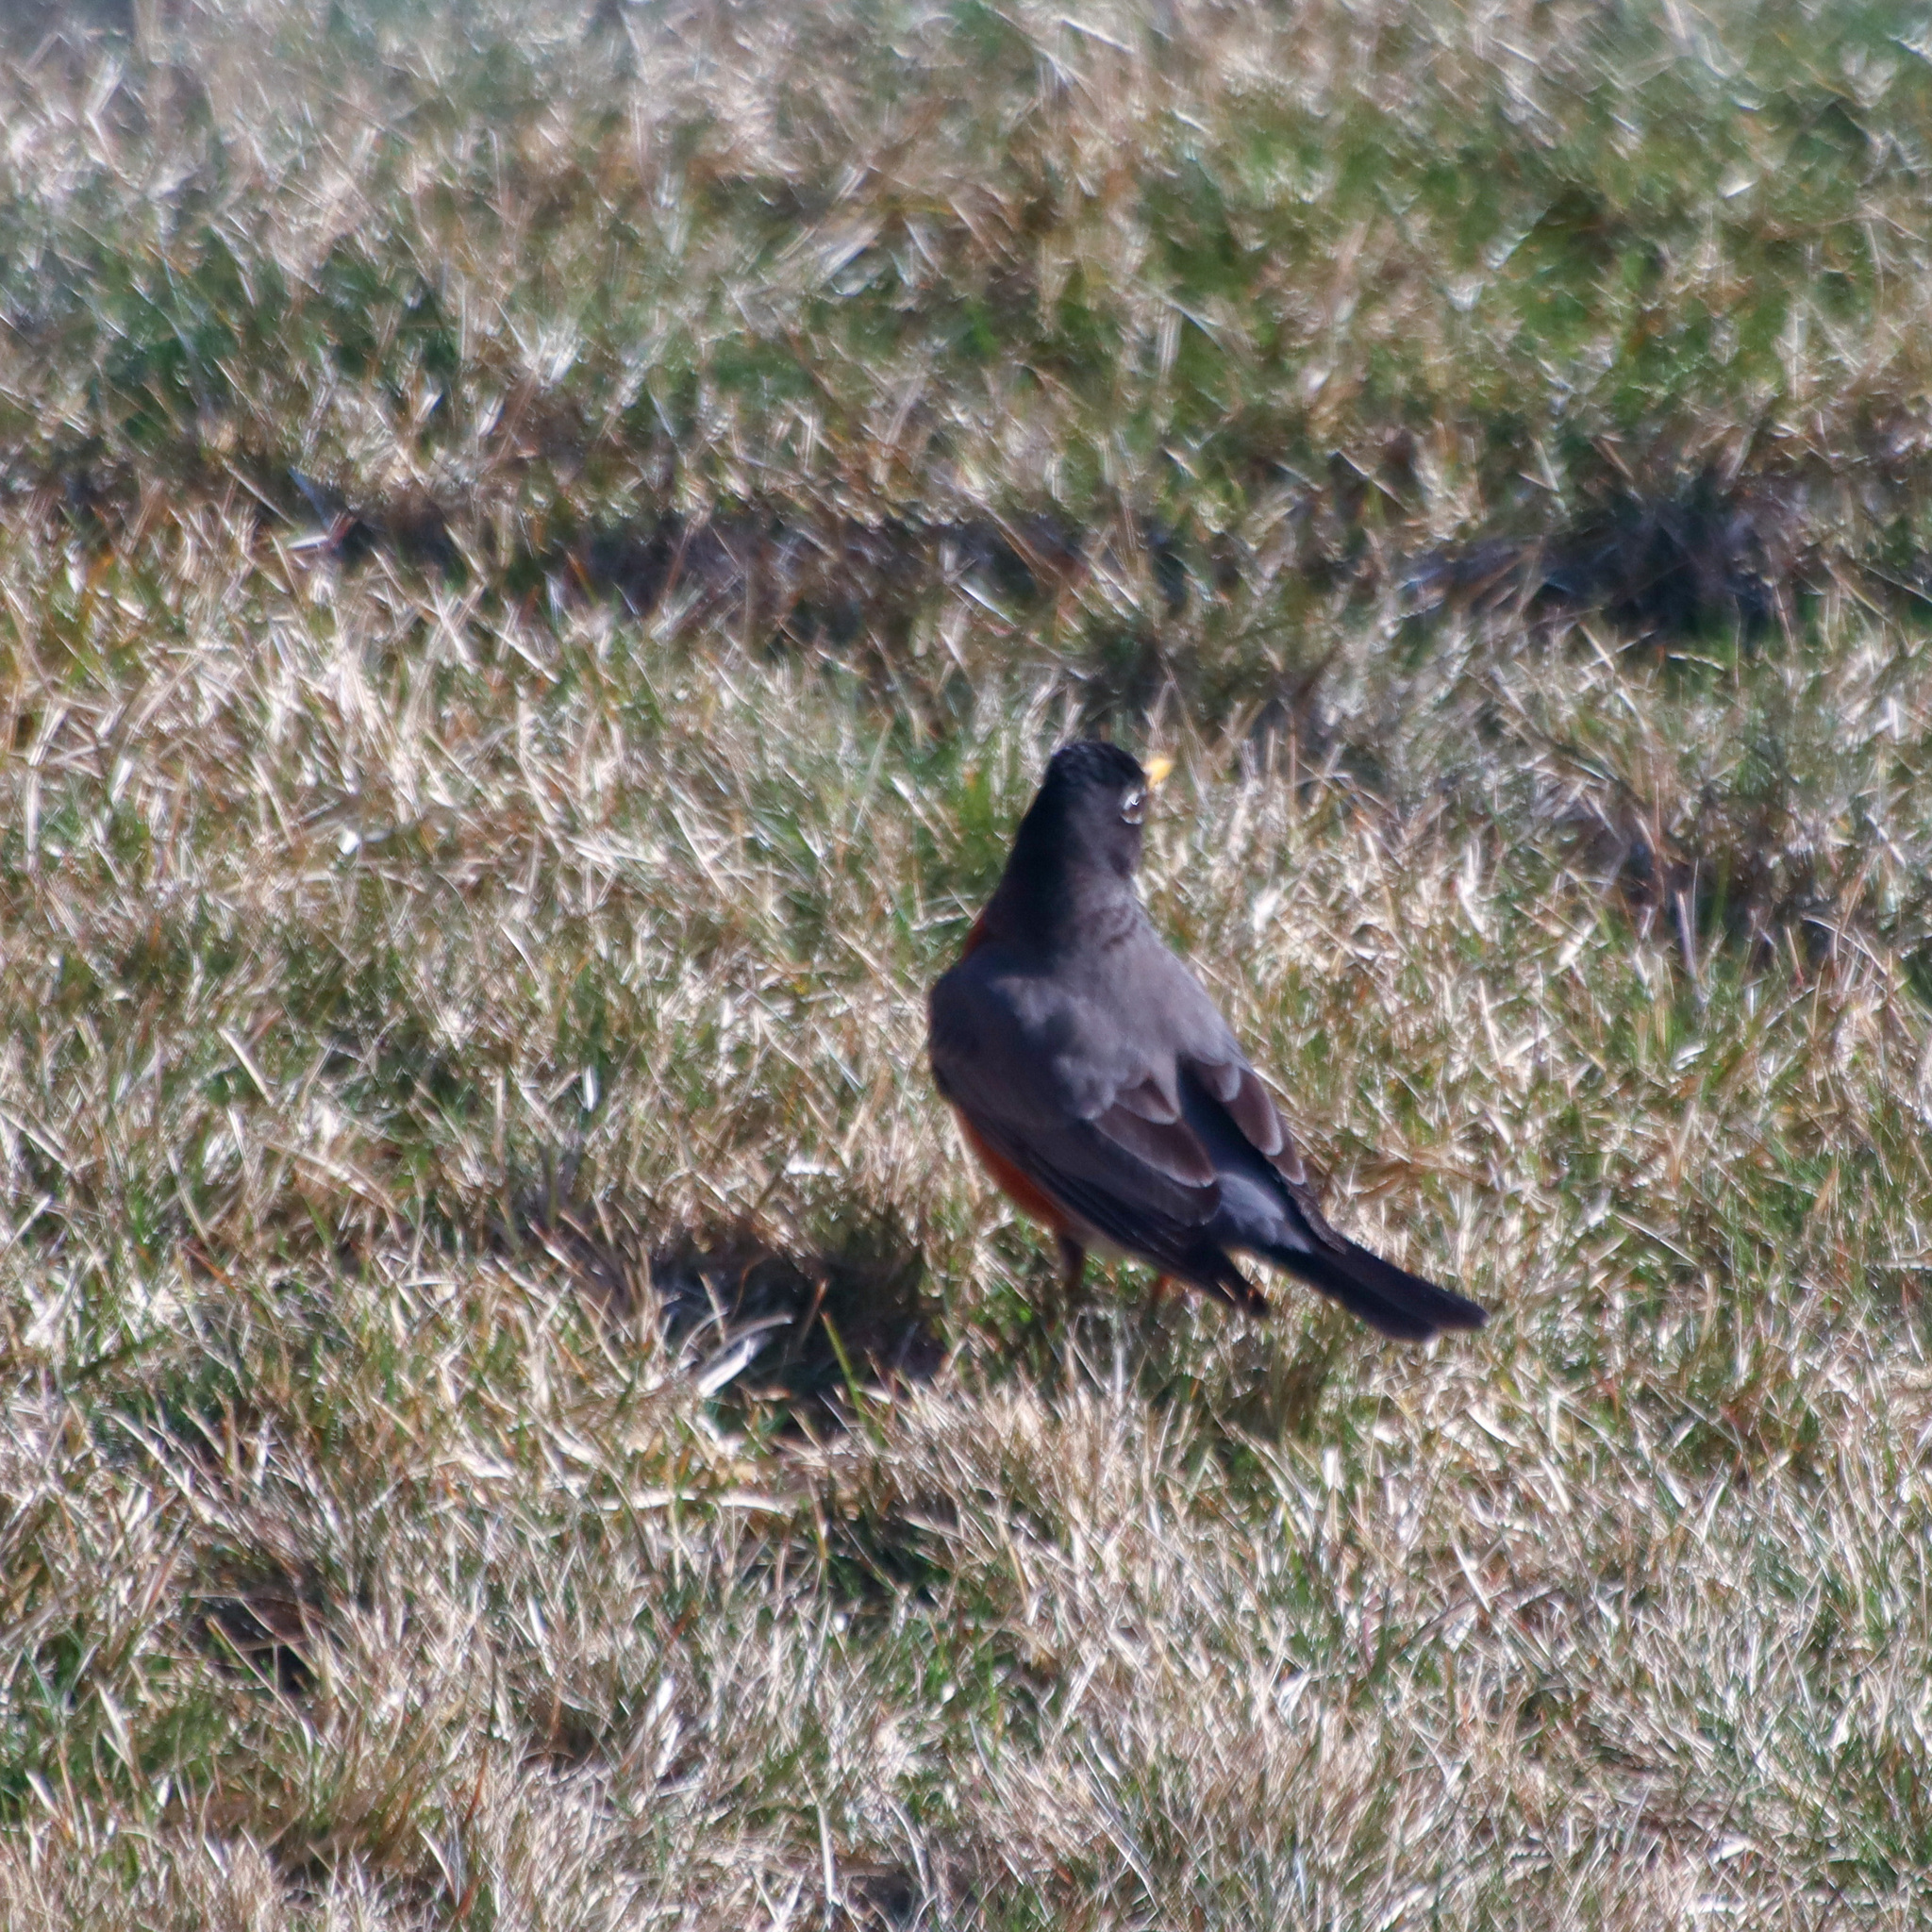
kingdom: Animalia
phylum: Chordata
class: Aves
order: Passeriformes
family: Turdidae
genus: Turdus
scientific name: Turdus migratorius
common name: American robin
